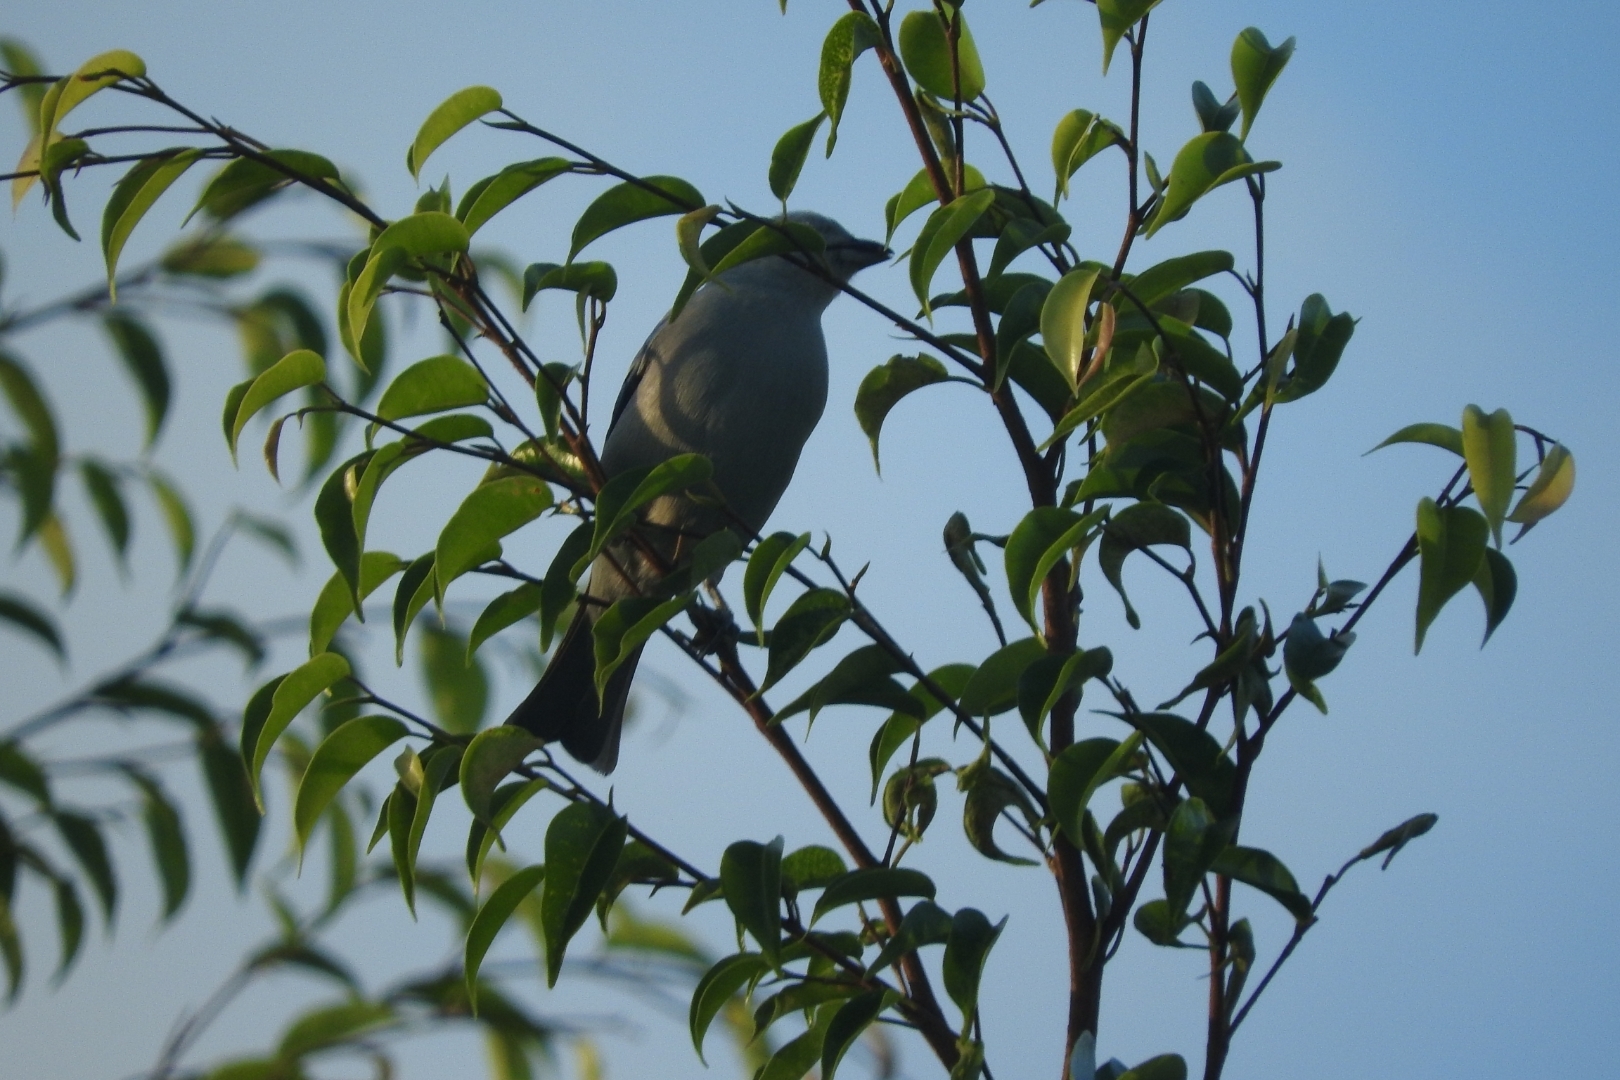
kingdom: Animalia
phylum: Chordata
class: Aves
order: Passeriformes
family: Thraupidae
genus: Thraupis
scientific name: Thraupis episcopus
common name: Blue-grey tanager
